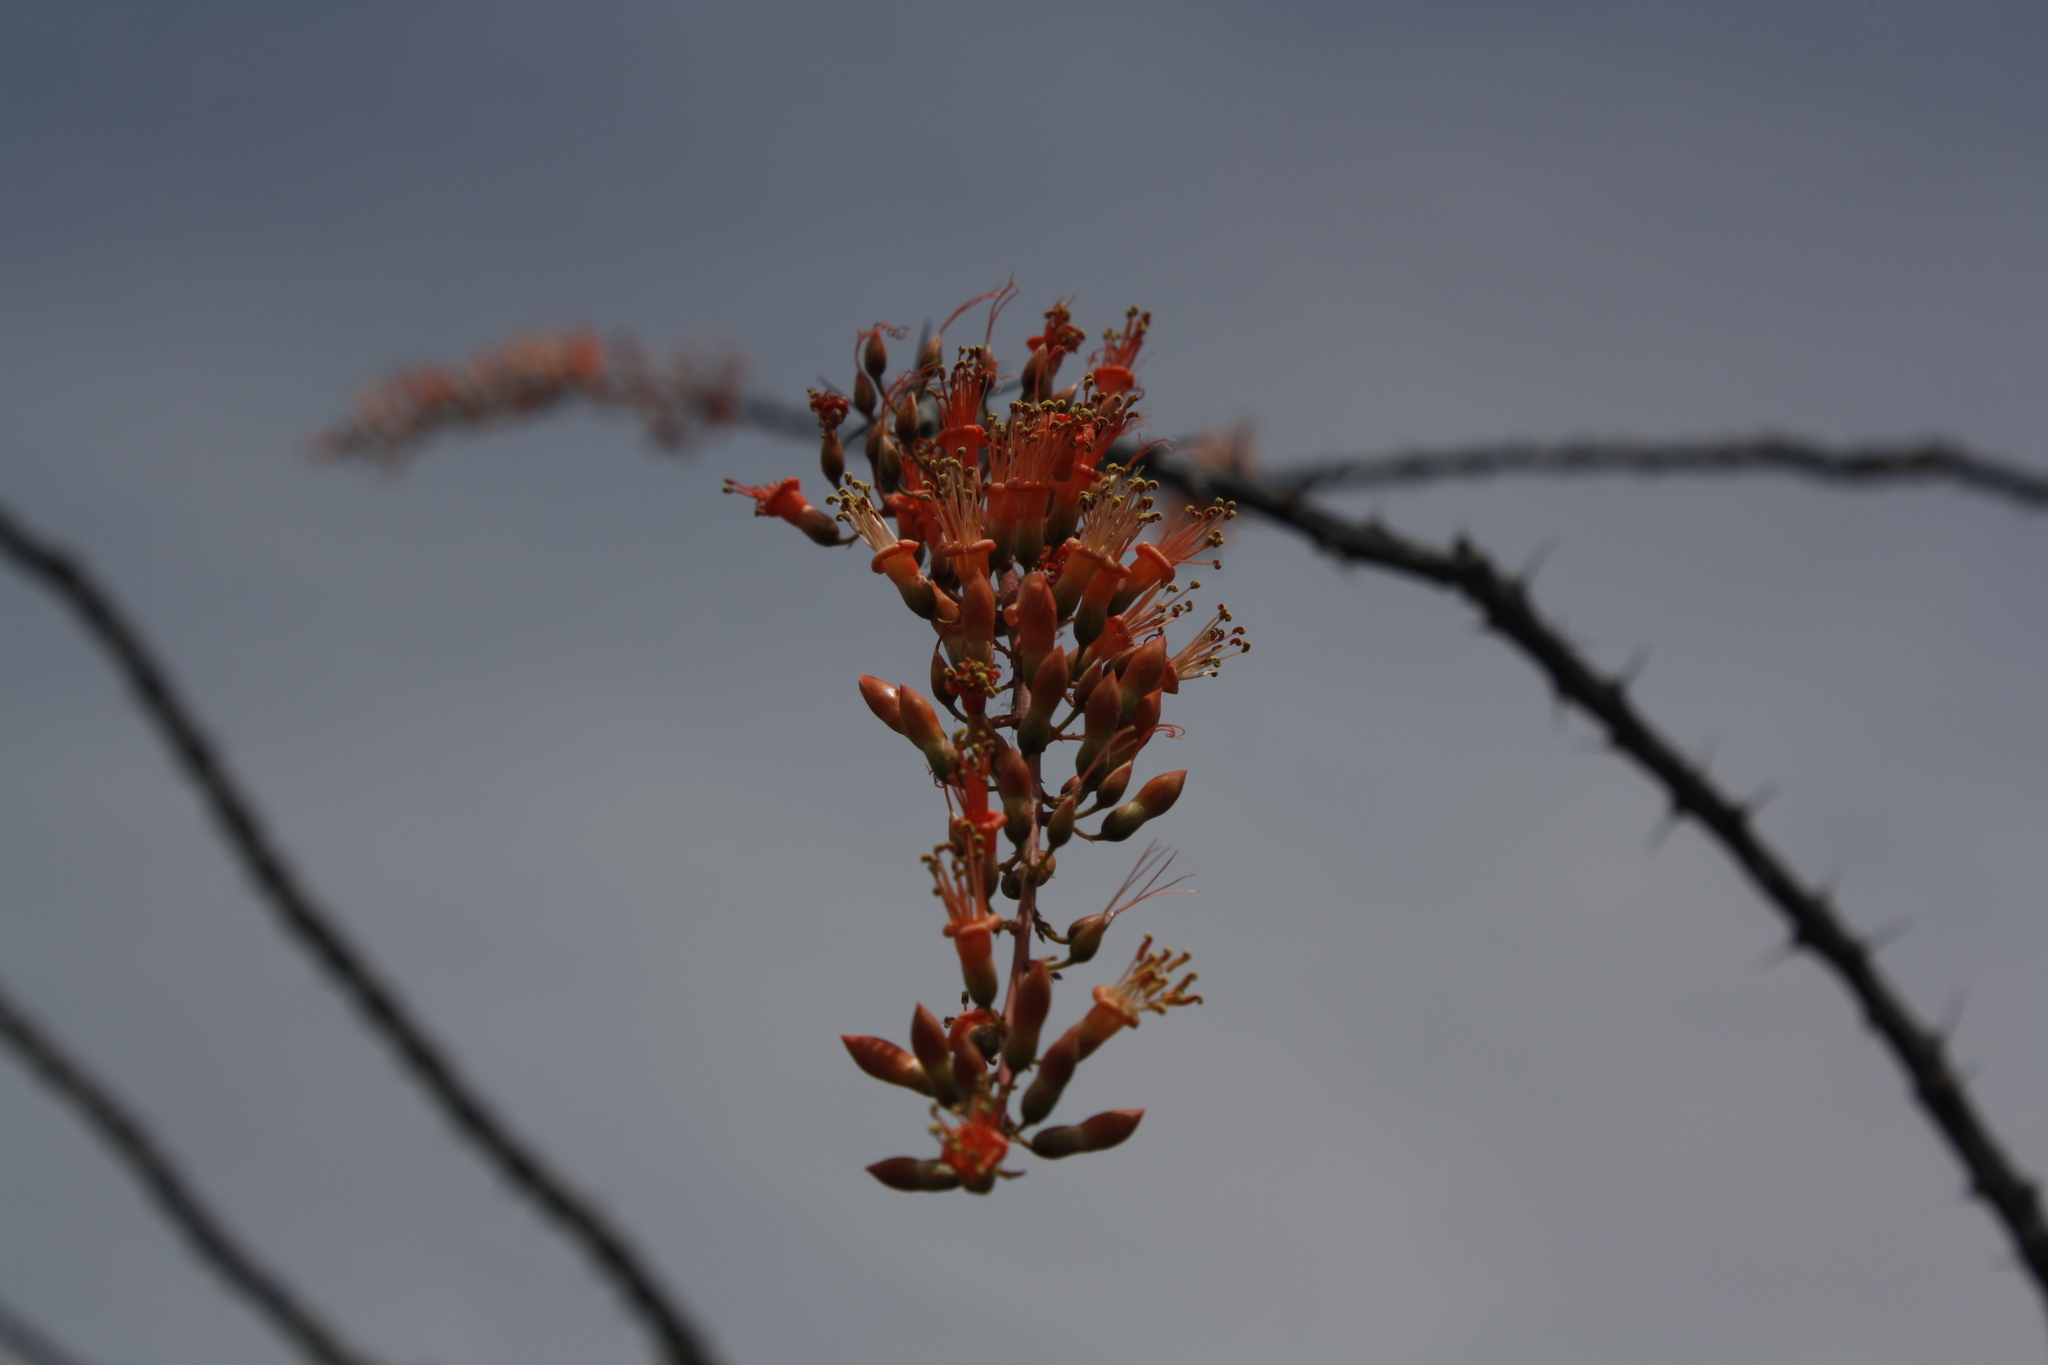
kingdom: Plantae
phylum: Tracheophyta
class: Magnoliopsida
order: Ericales
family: Fouquieriaceae
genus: Fouquieria
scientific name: Fouquieria splendens
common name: Vine-cactus
